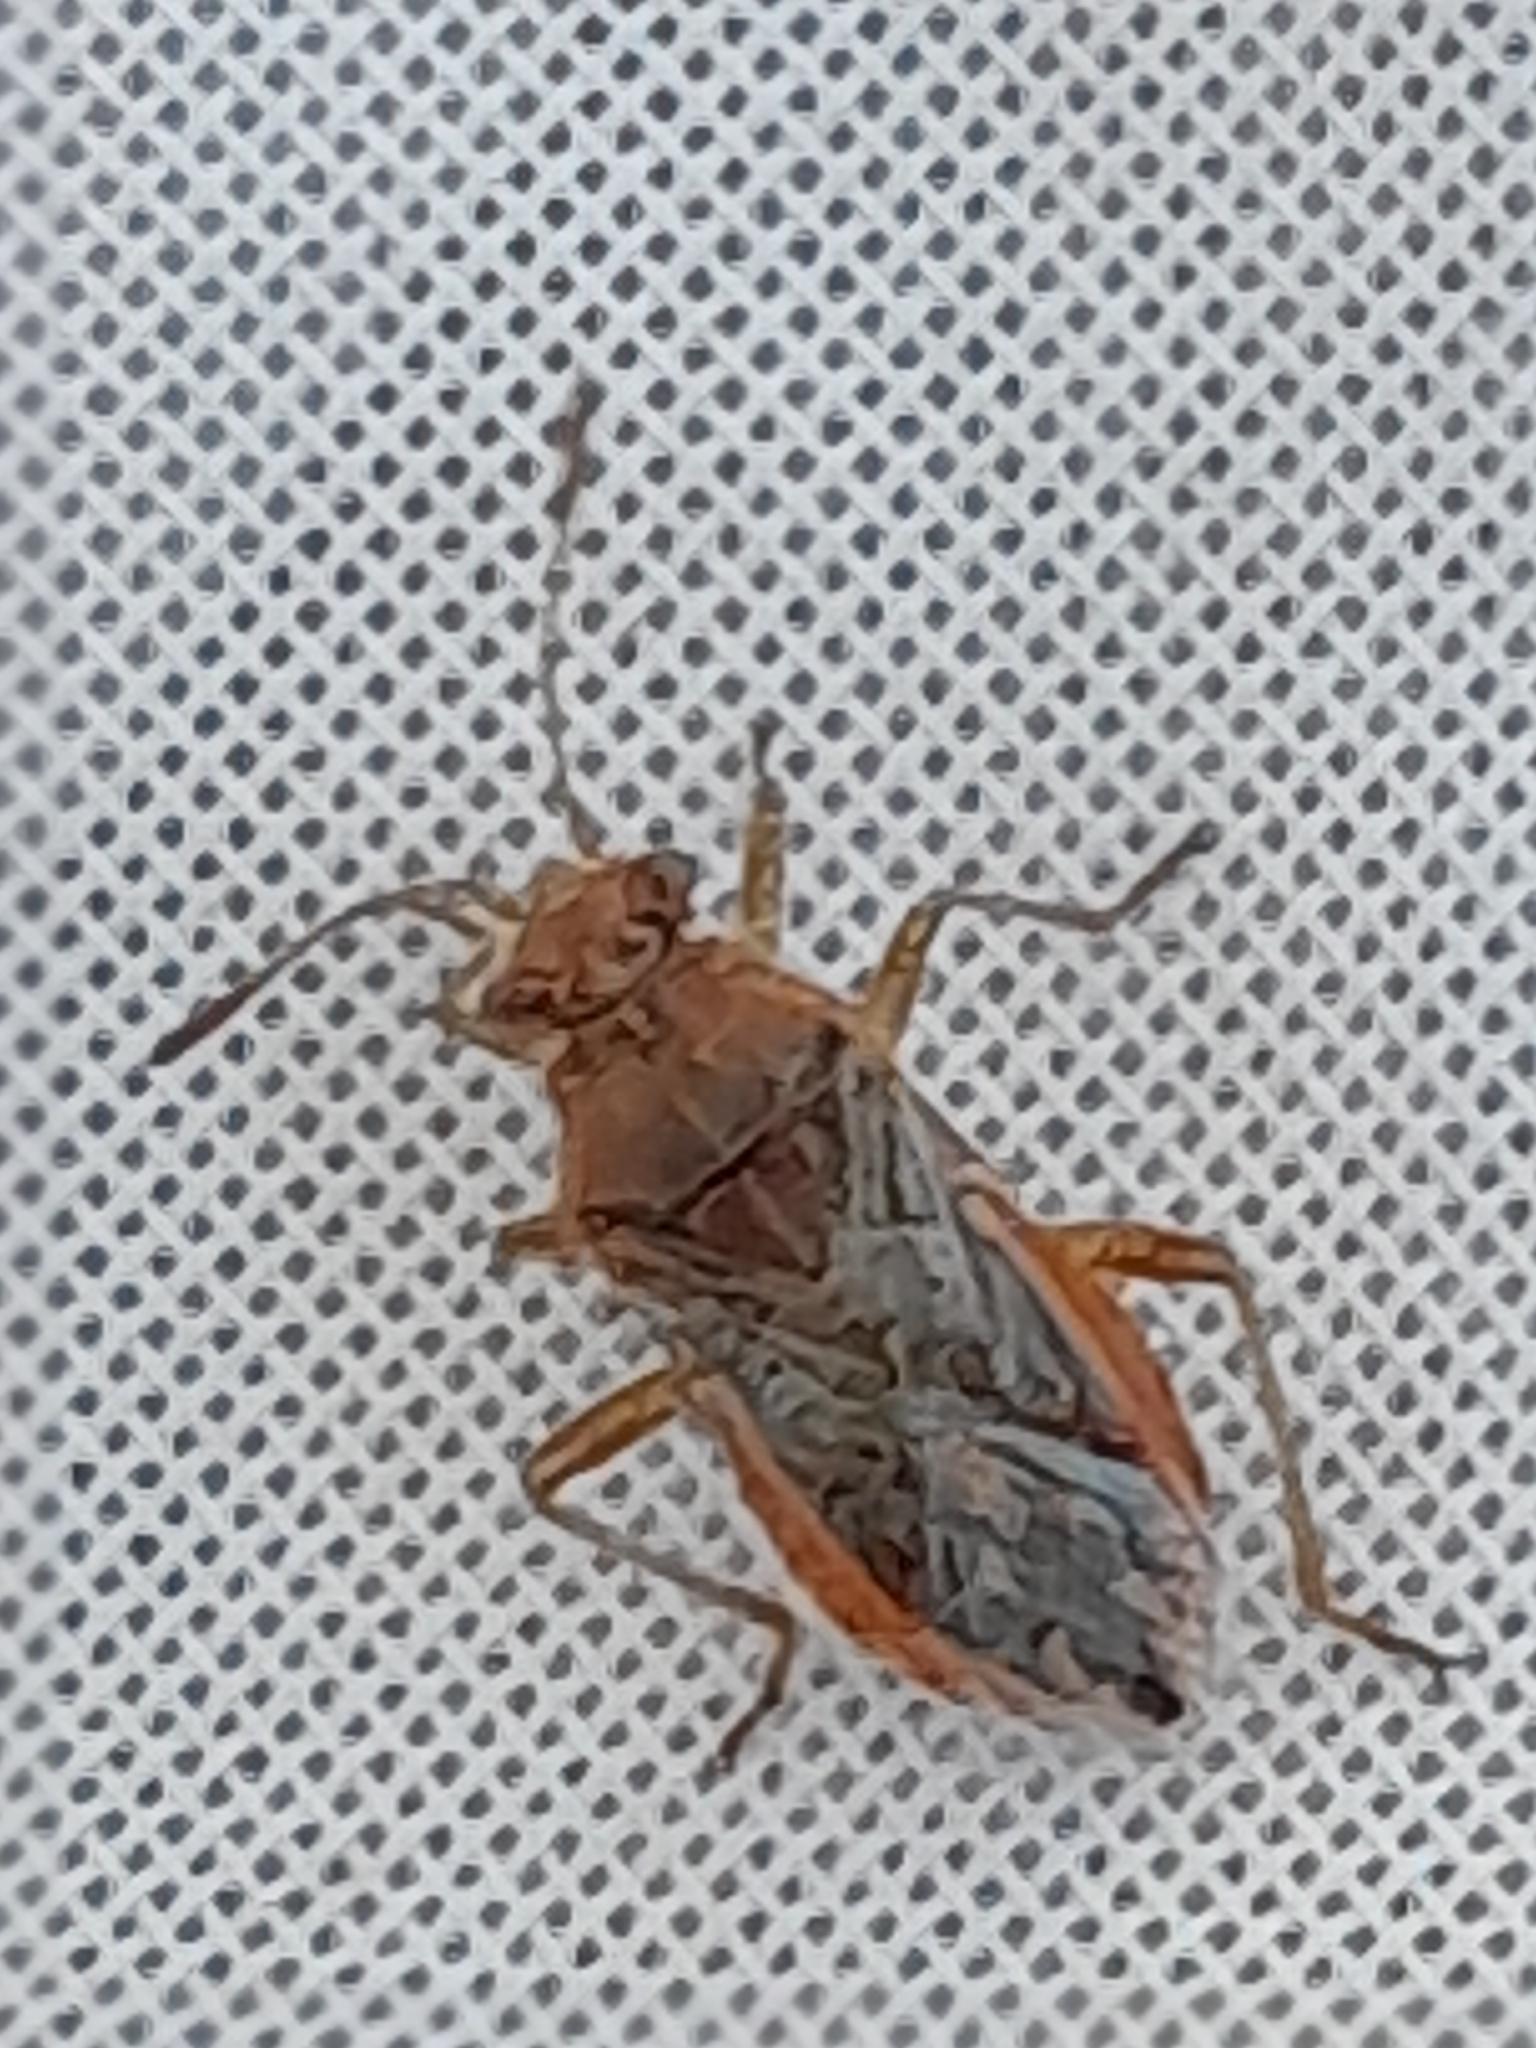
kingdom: Animalia
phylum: Arthropoda
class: Insecta
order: Hemiptera
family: Rhopalidae
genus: Rhopalus
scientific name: Rhopalus parumpunctatus
